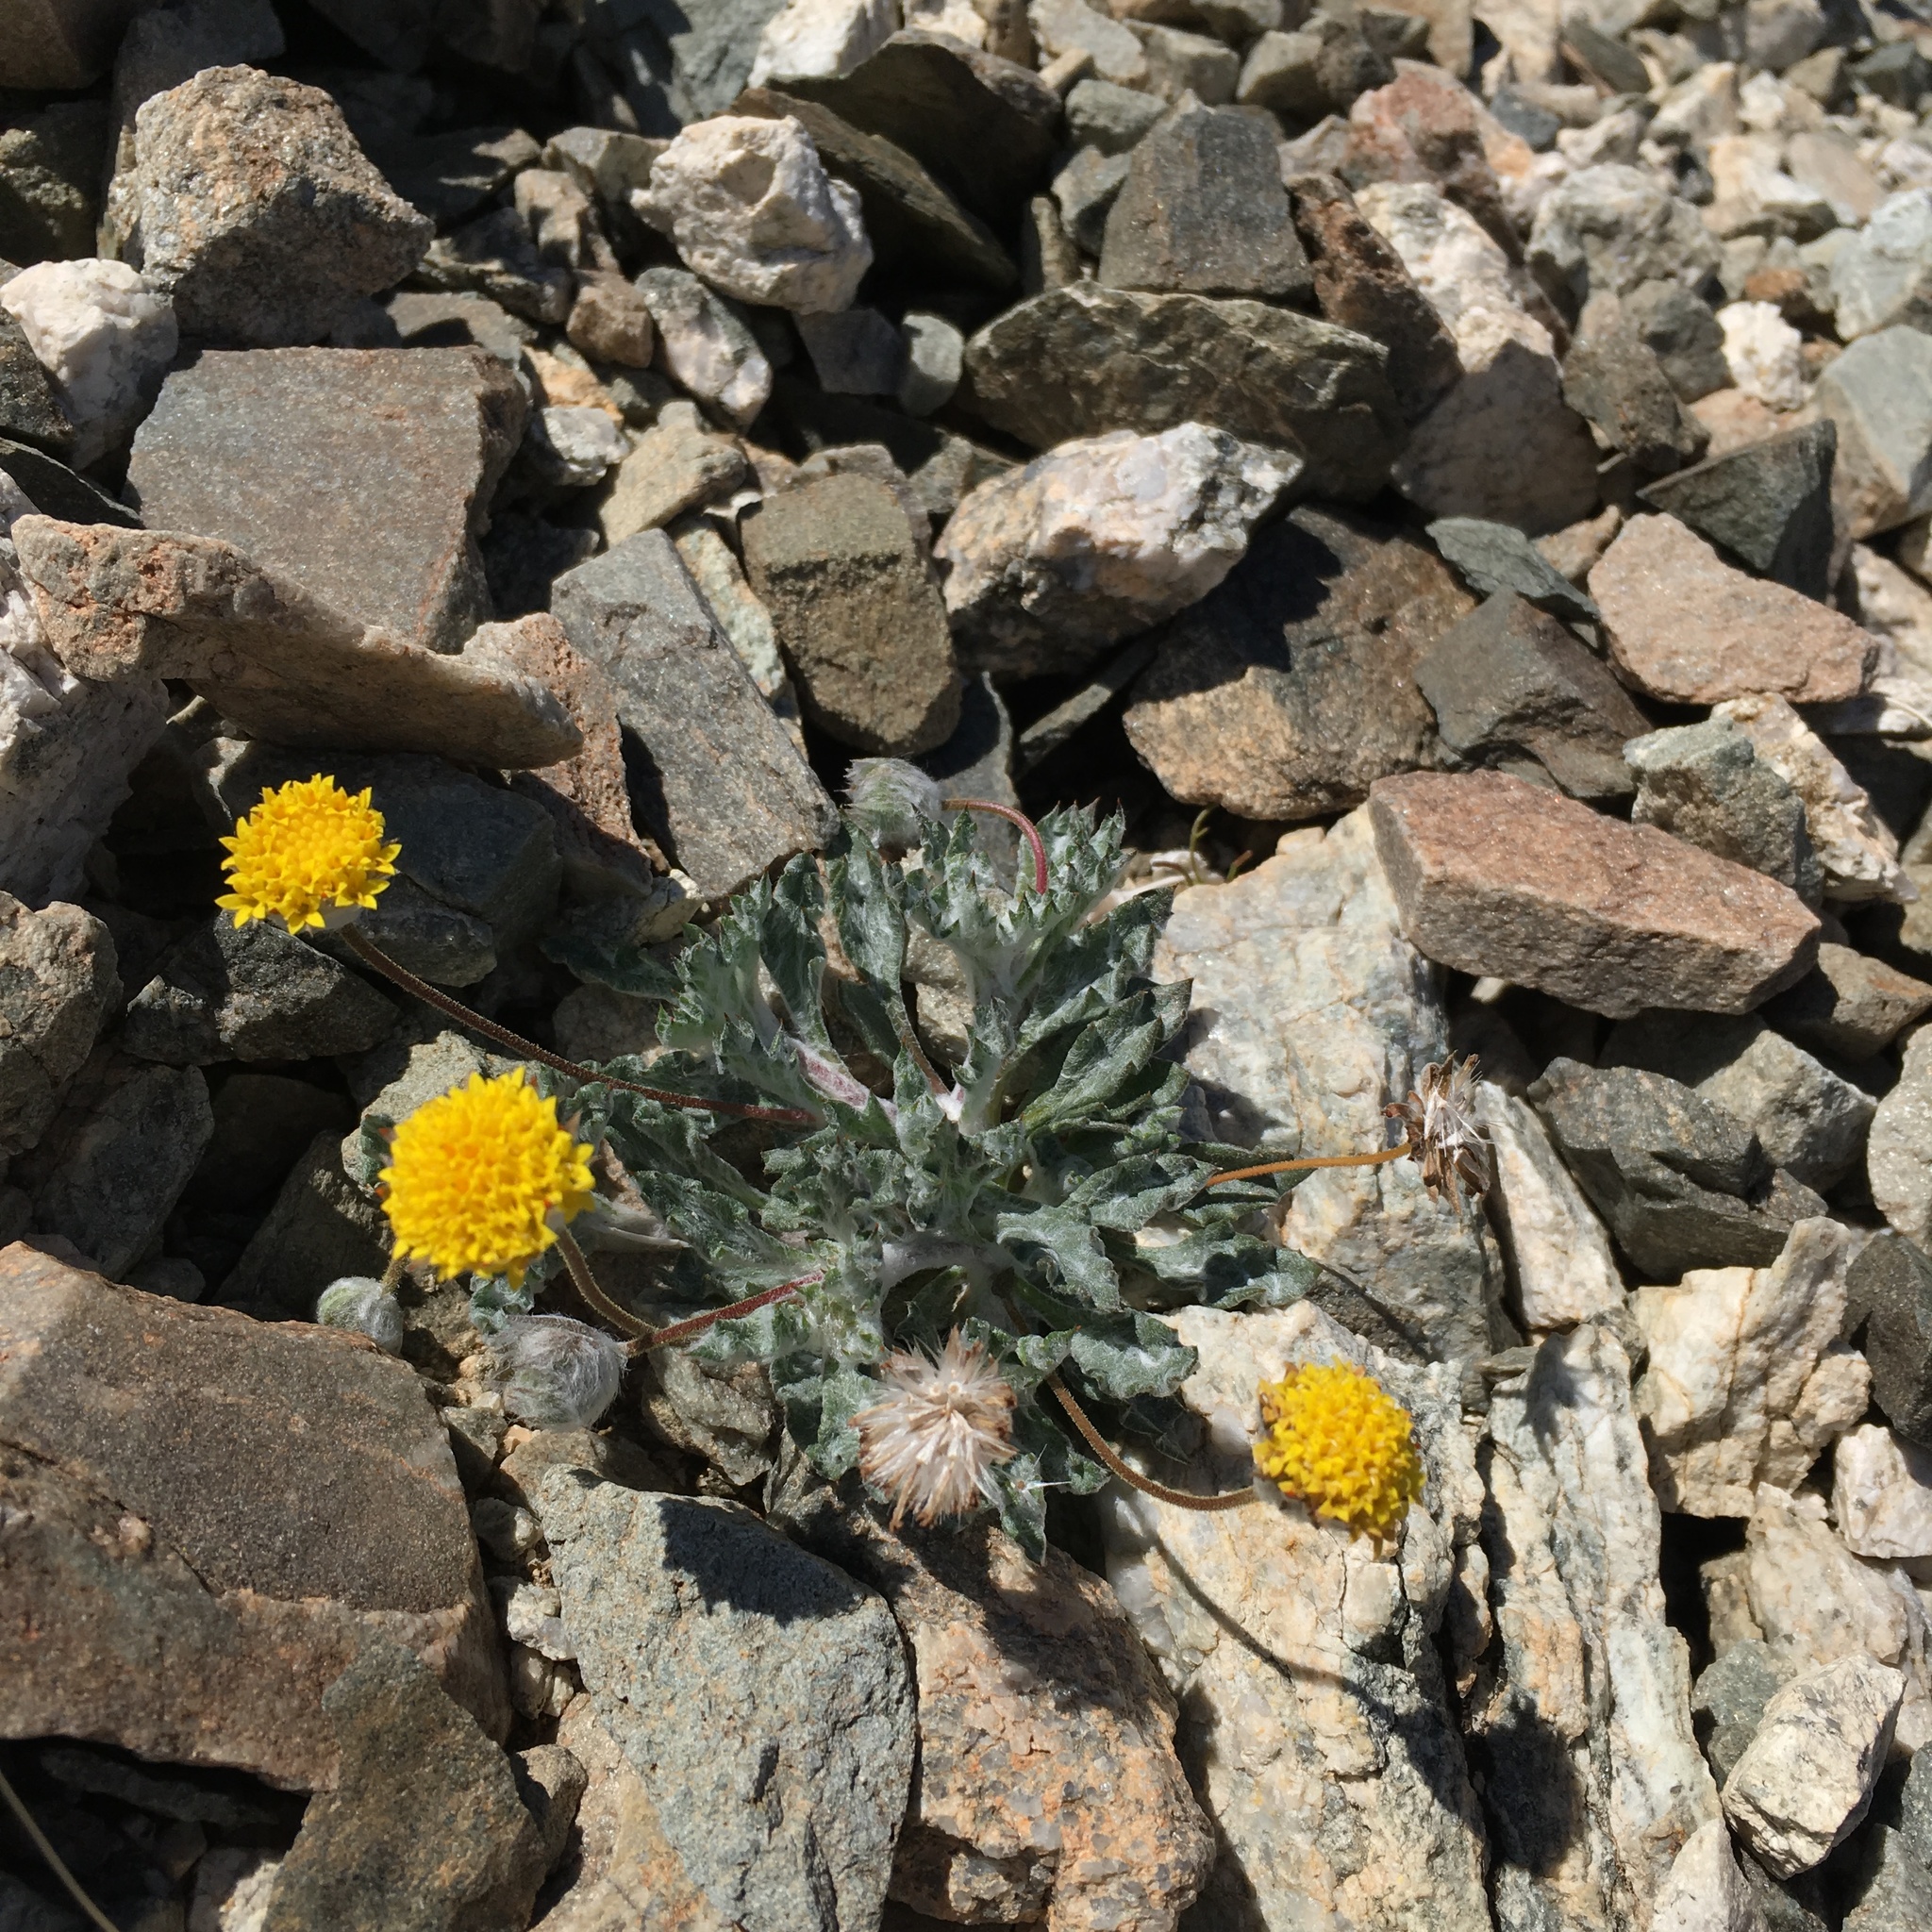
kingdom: Plantae
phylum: Tracheophyta
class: Magnoliopsida
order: Asterales
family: Asteraceae
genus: Trichoptilium
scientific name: Trichoptilium incisum
